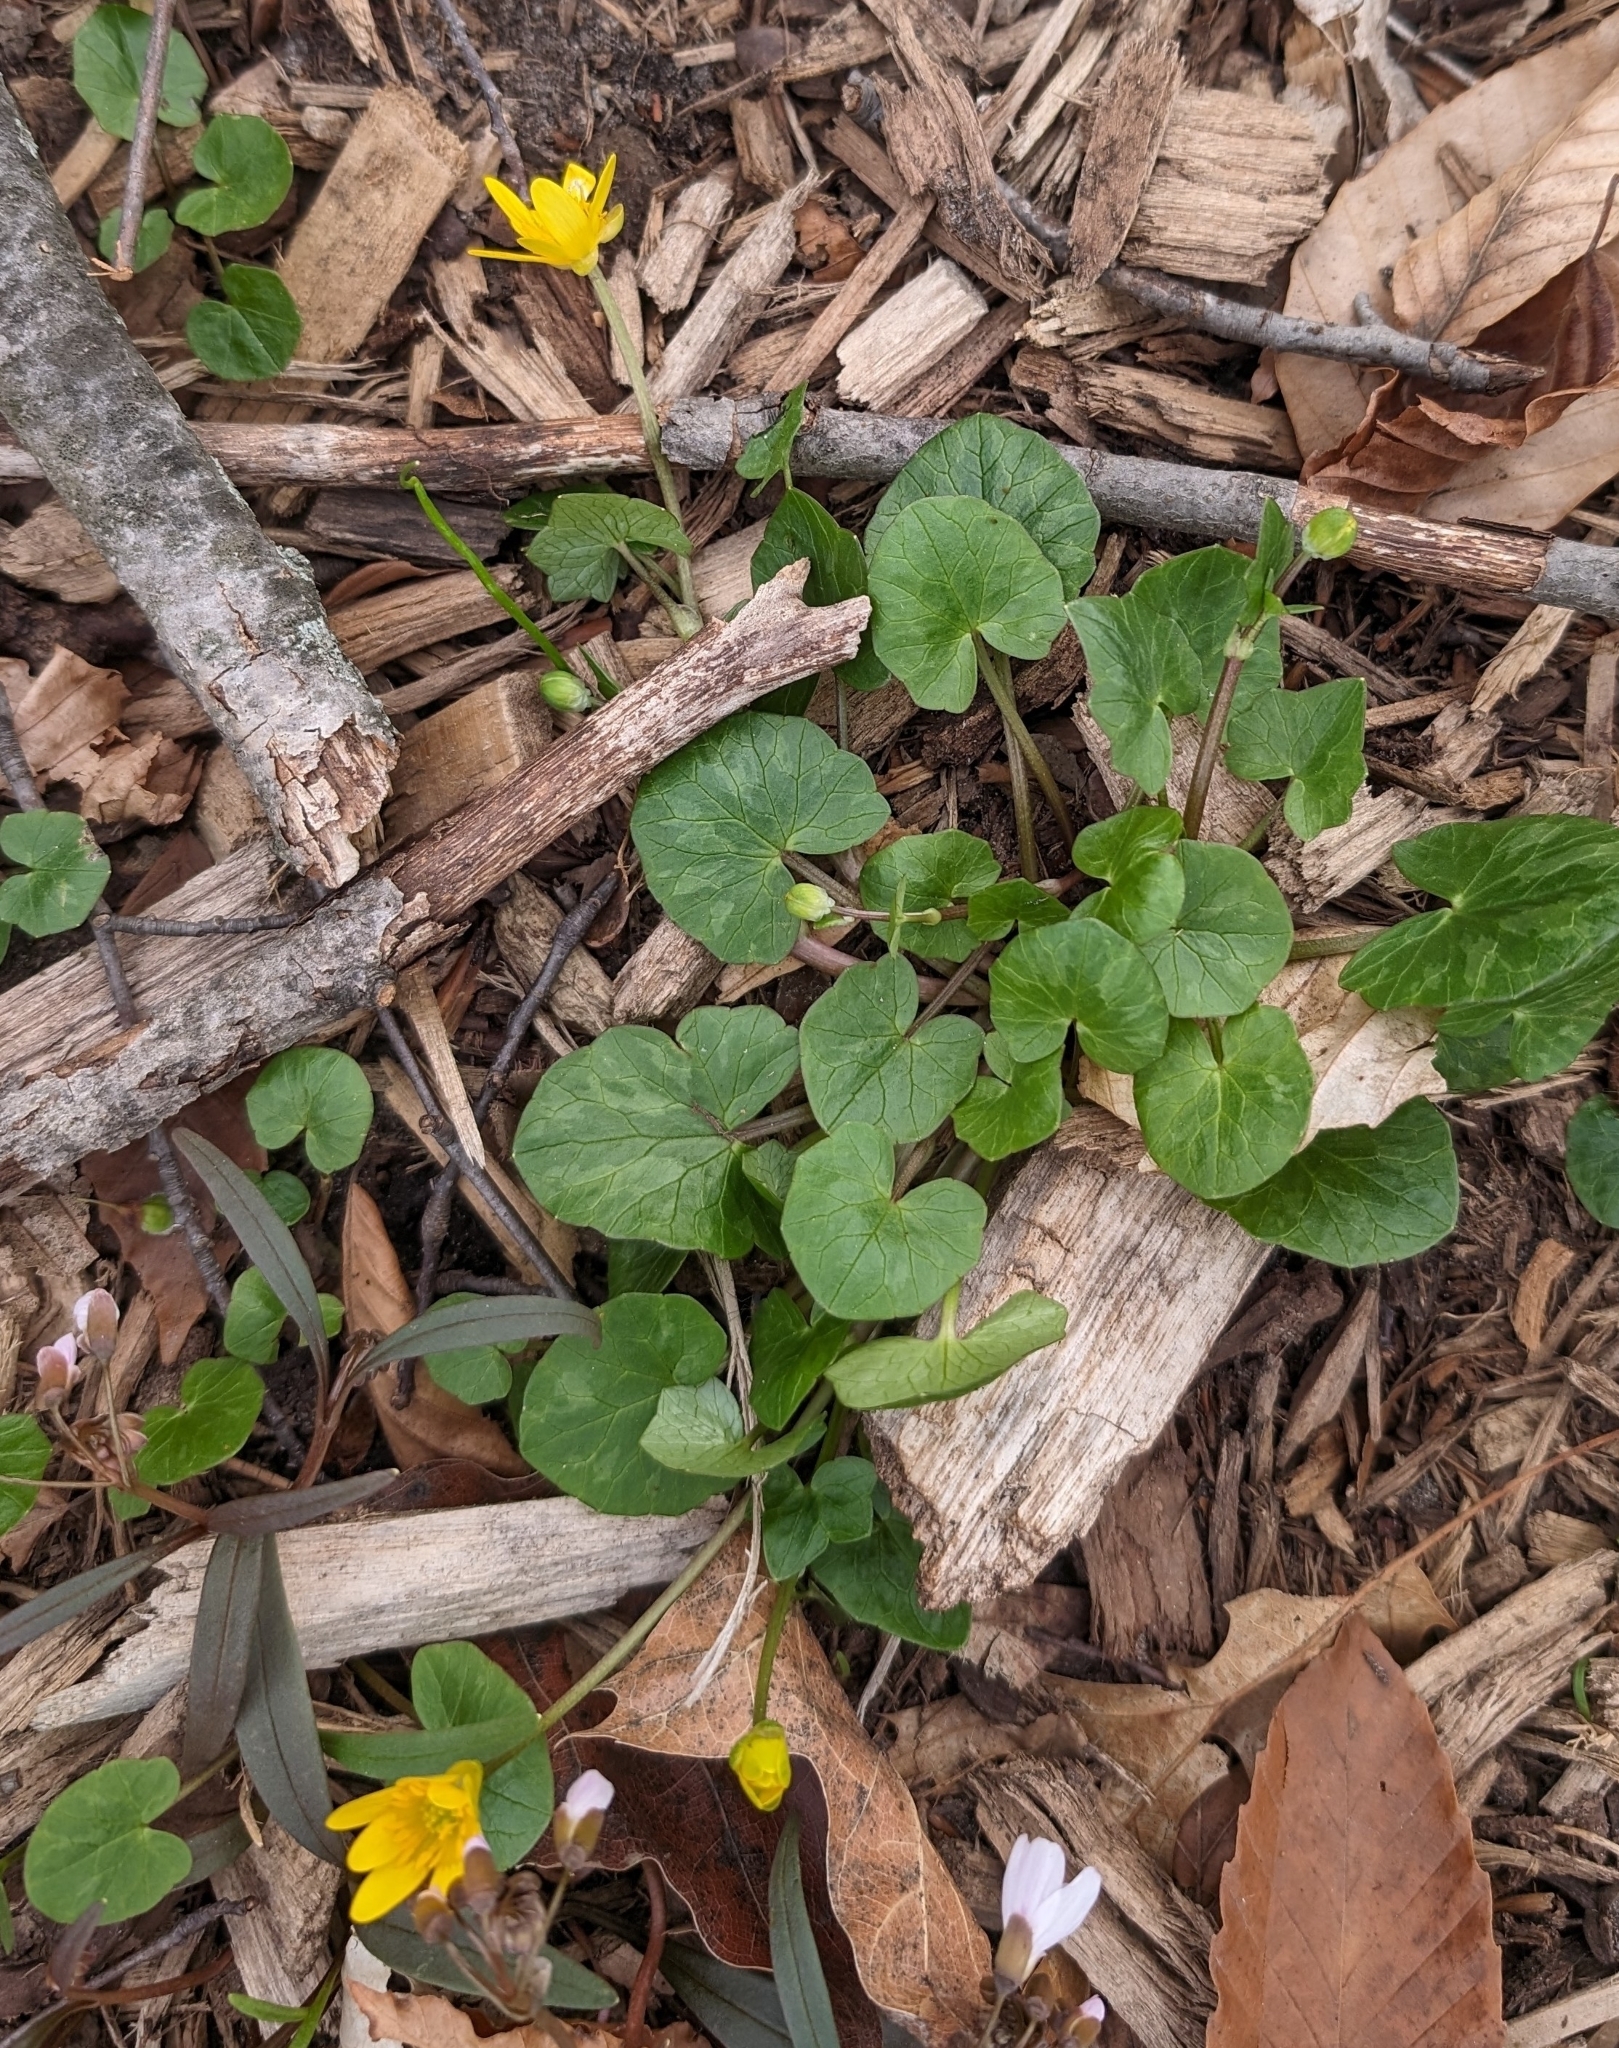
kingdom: Plantae
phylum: Tracheophyta
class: Magnoliopsida
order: Ranunculales
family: Ranunculaceae
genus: Ficaria
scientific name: Ficaria verna
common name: Lesser celandine
